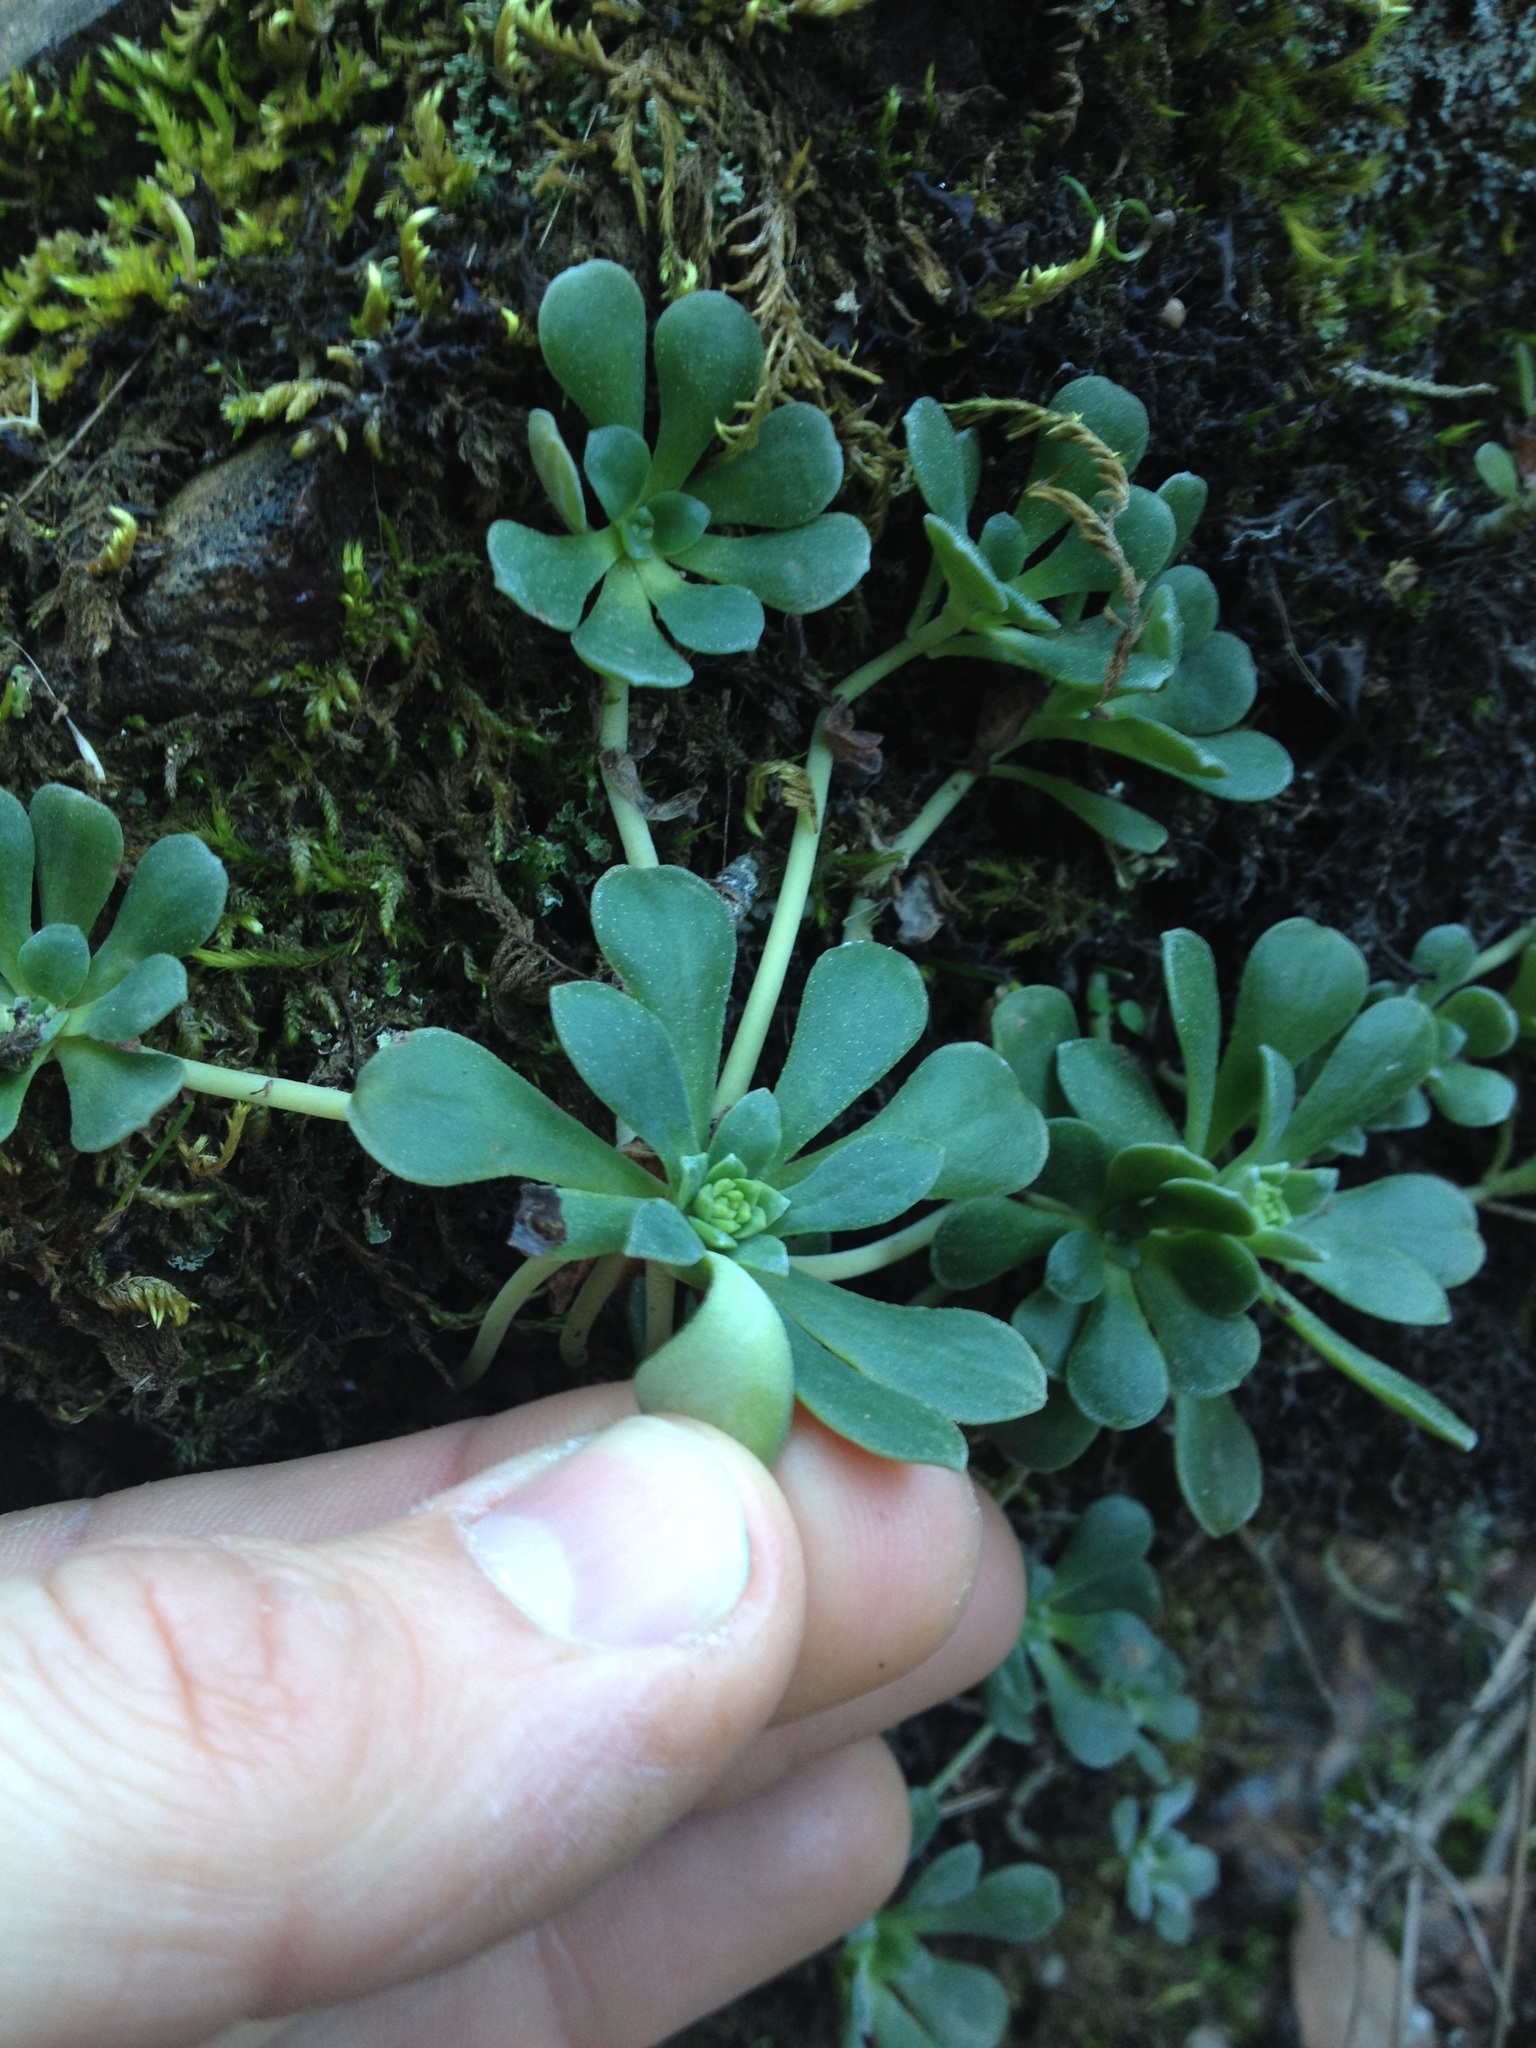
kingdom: Plantae
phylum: Tracheophyta
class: Magnoliopsida
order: Saxifragales
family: Crassulaceae
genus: Sedum
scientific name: Sedum spathulifolium
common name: Colorado stonecrop
